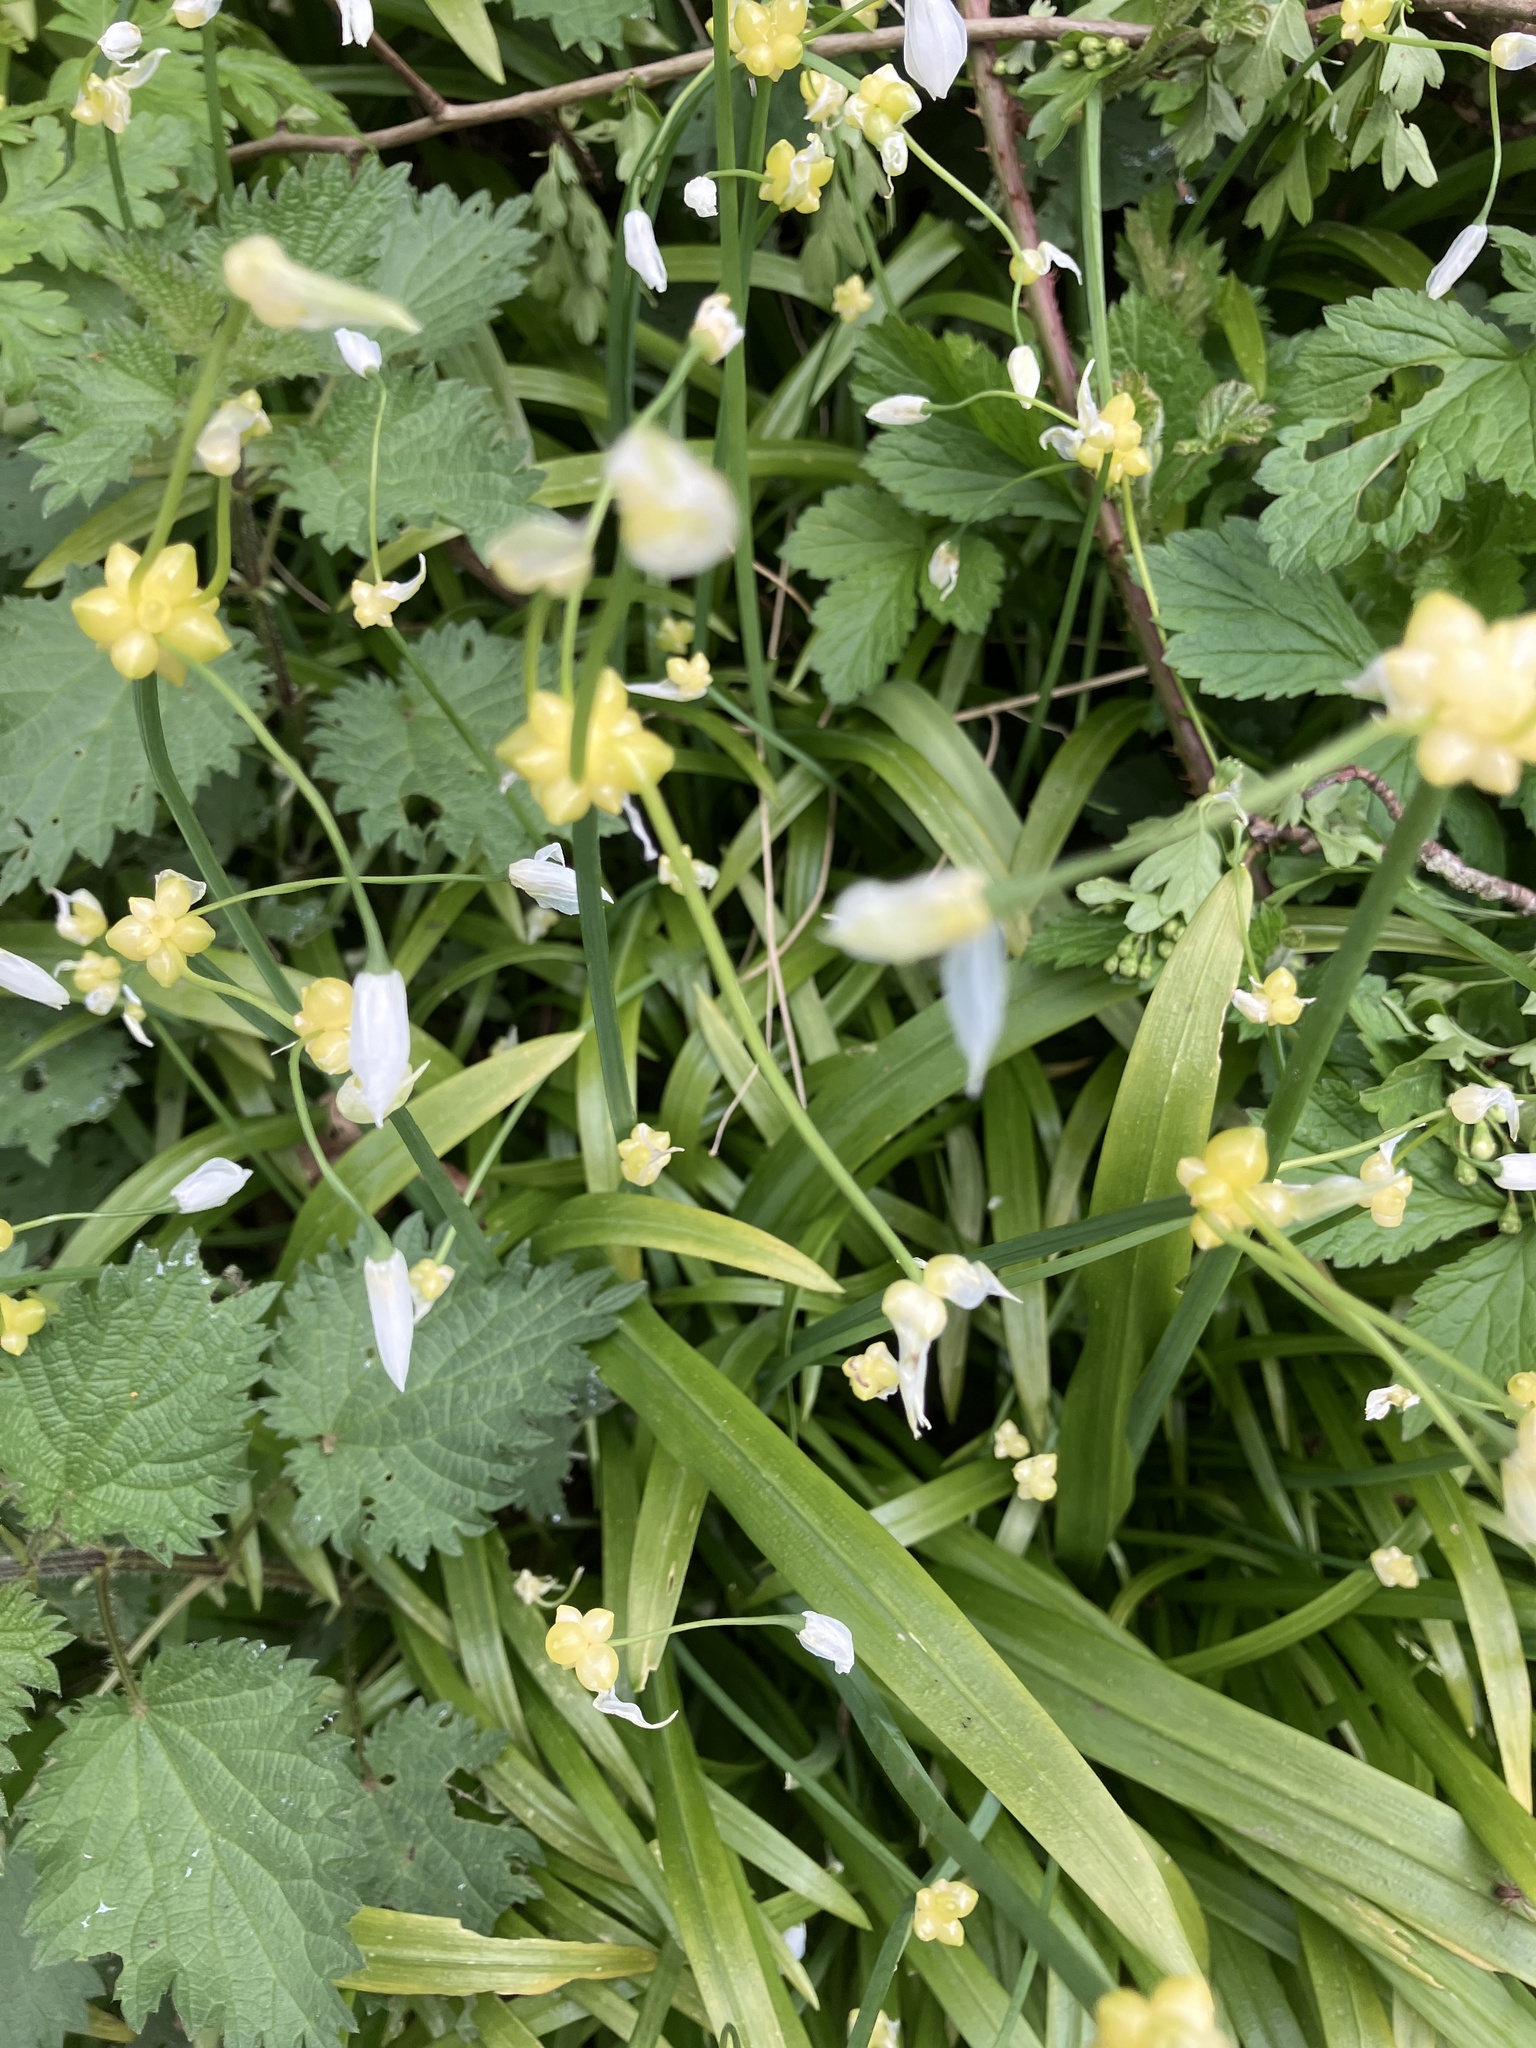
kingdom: Plantae
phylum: Tracheophyta
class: Liliopsida
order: Asparagales
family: Amaryllidaceae
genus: Allium
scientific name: Allium paradoxum
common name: Few-flowered garlic
